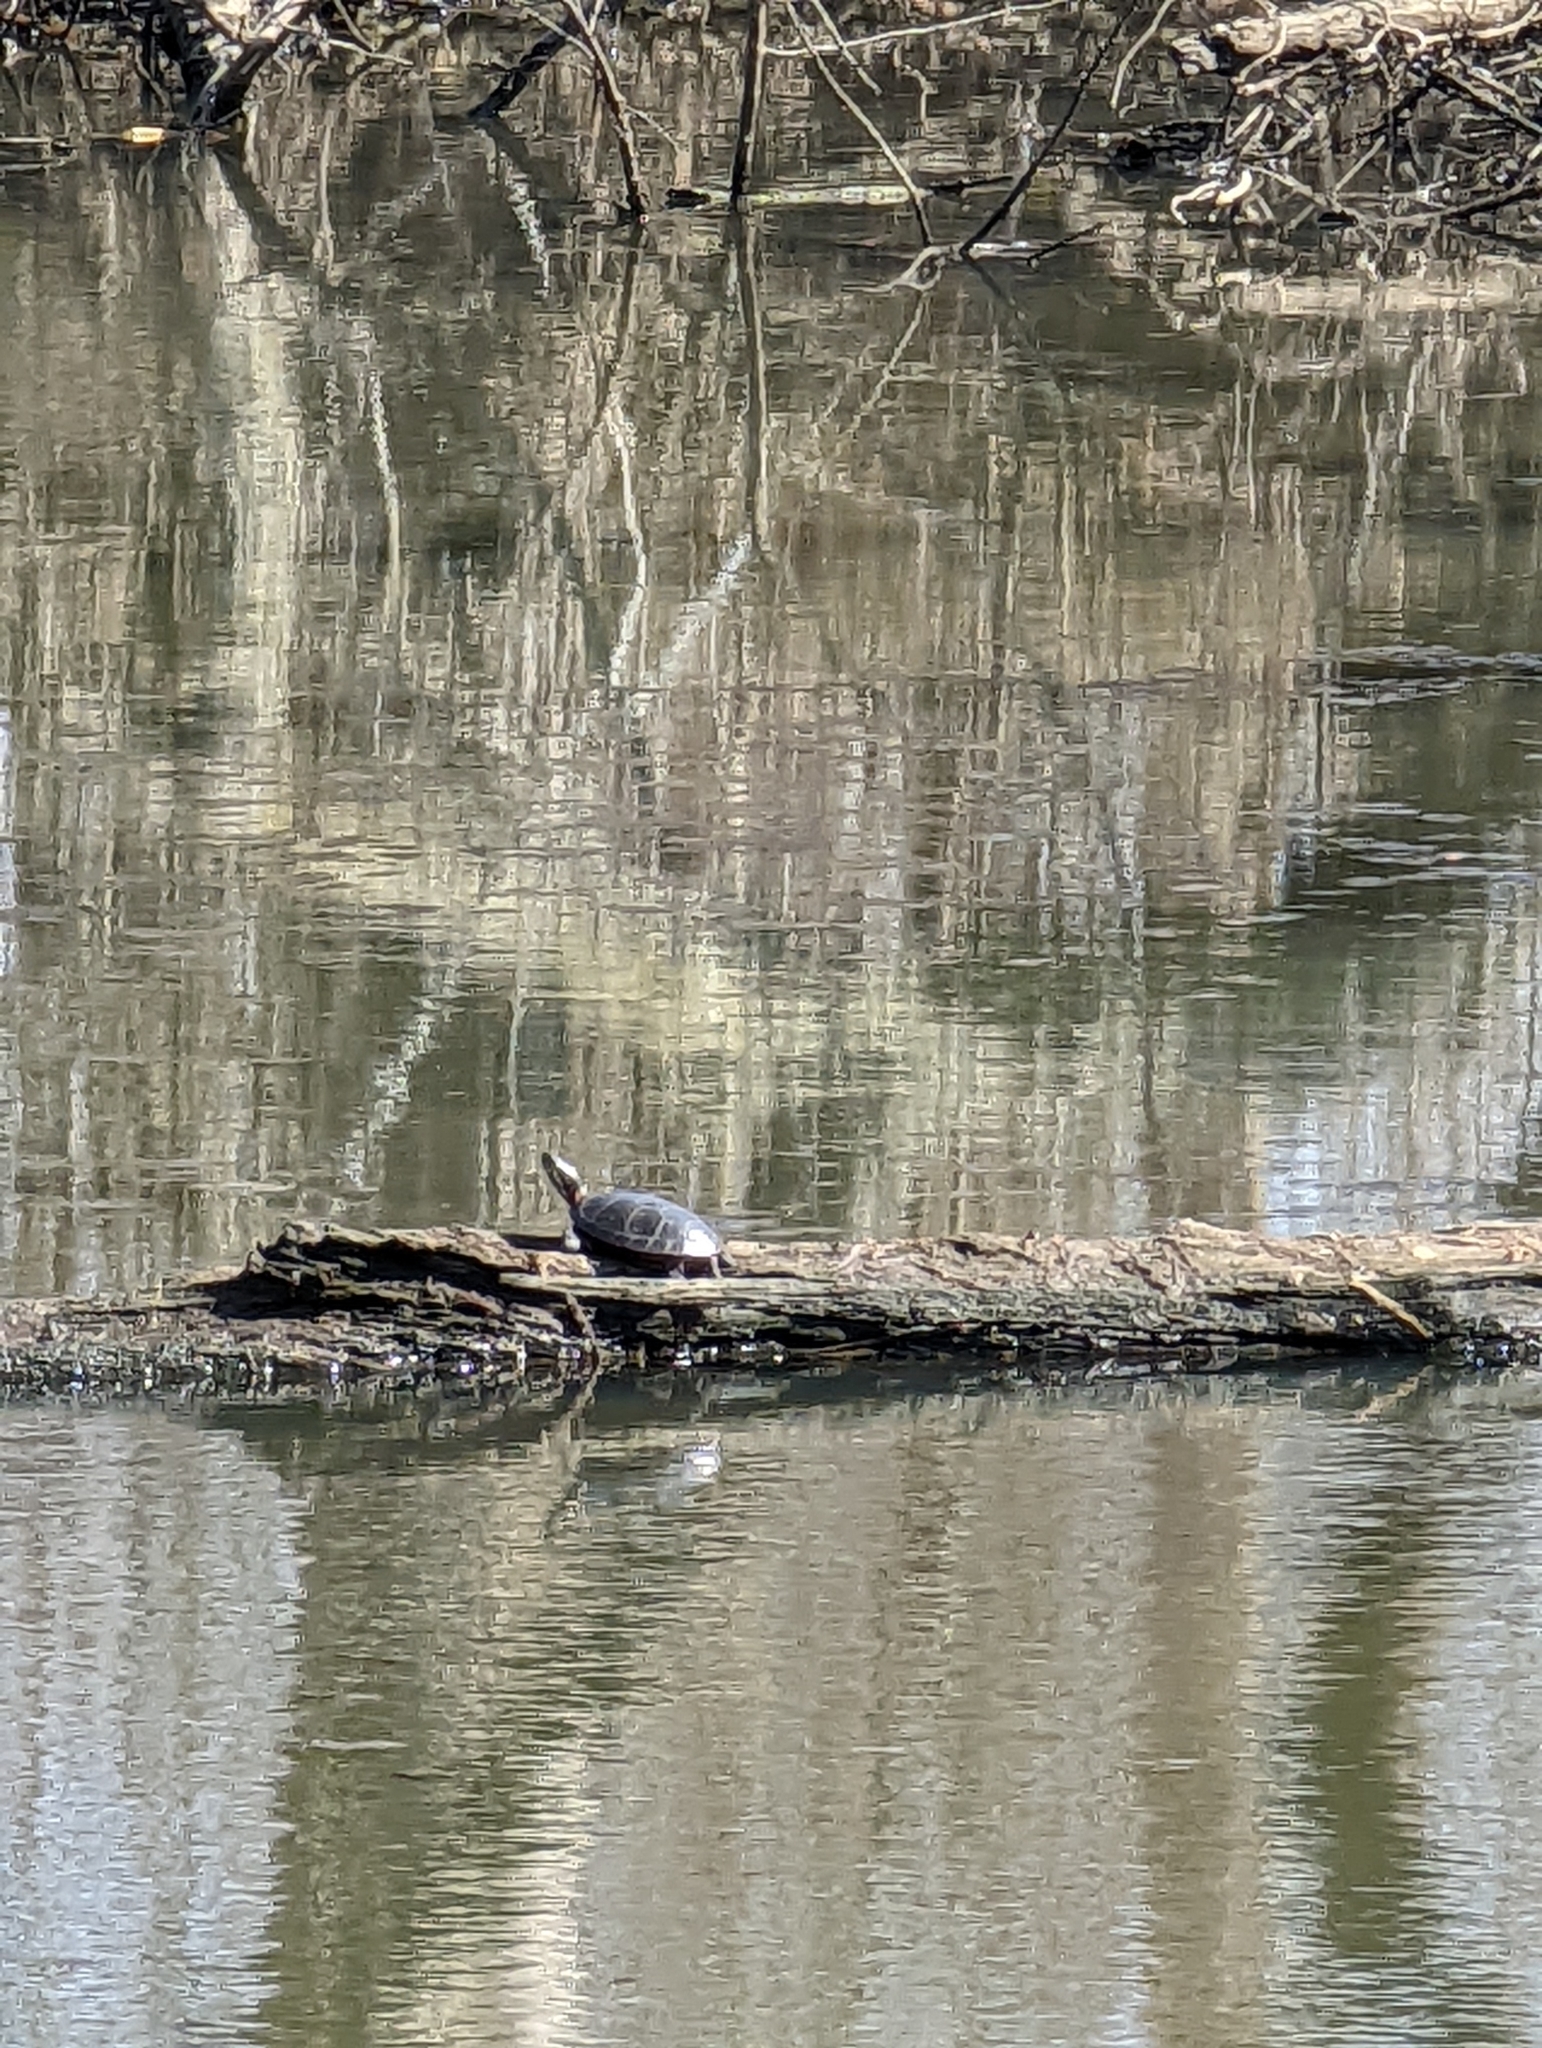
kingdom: Animalia
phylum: Chordata
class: Testudines
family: Emydidae
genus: Chrysemys
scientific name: Chrysemys picta
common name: Painted turtle
